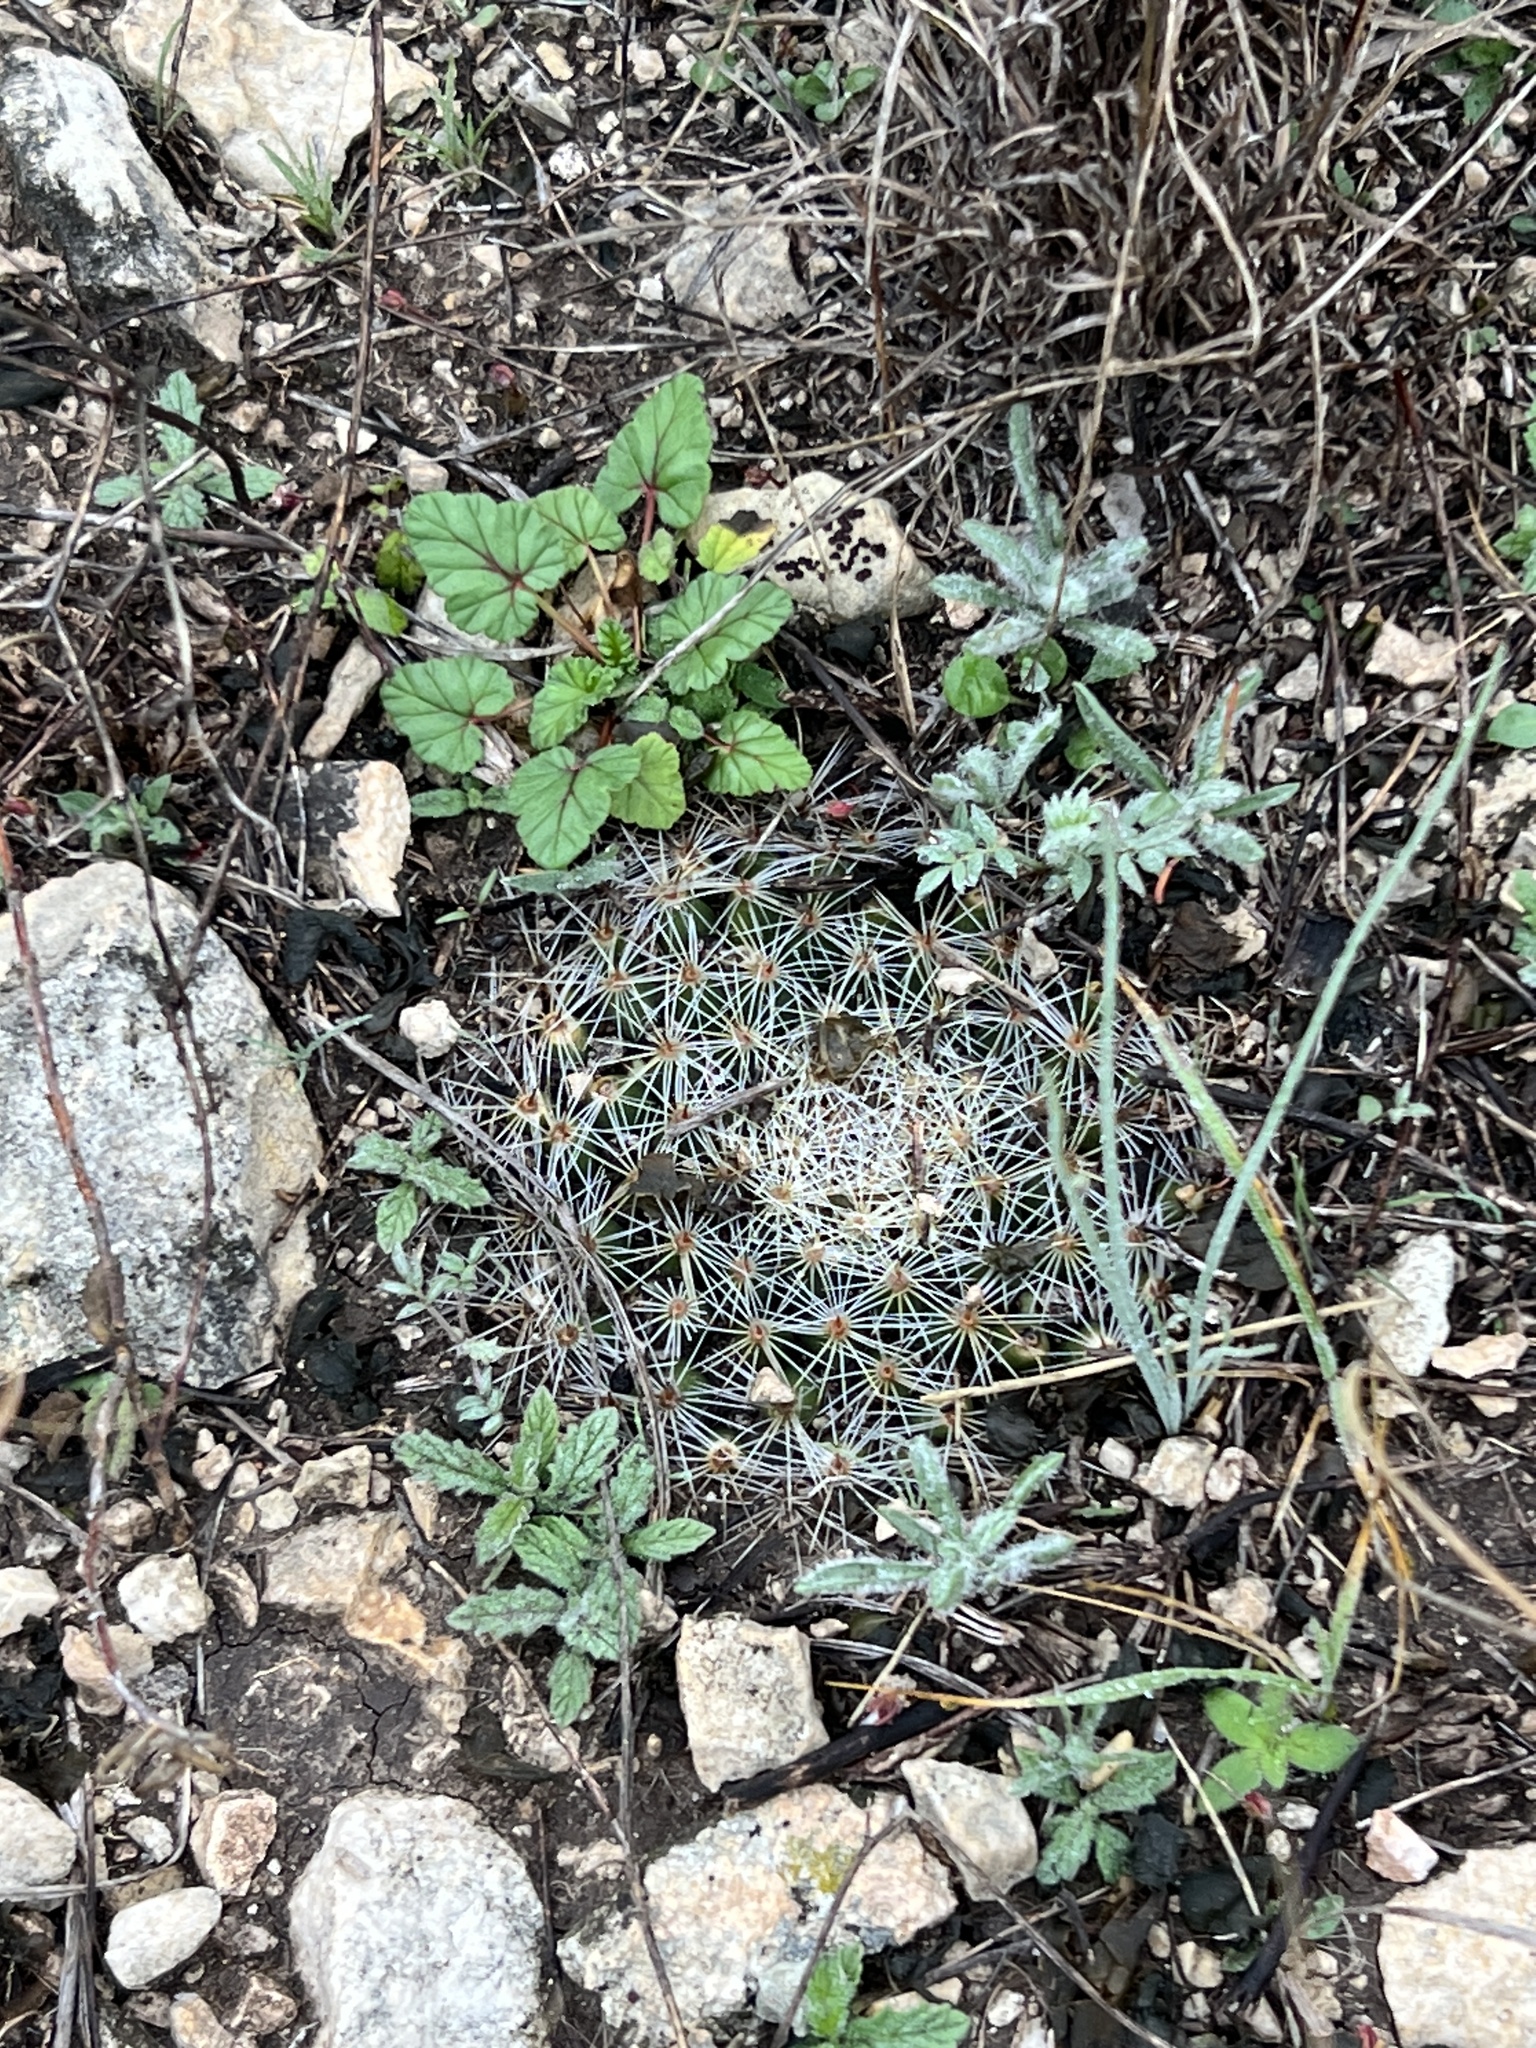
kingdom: Plantae
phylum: Tracheophyta
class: Magnoliopsida
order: Caryophyllales
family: Cactaceae
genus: Mammillaria
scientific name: Mammillaria heyderi
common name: Little nipple cactus
